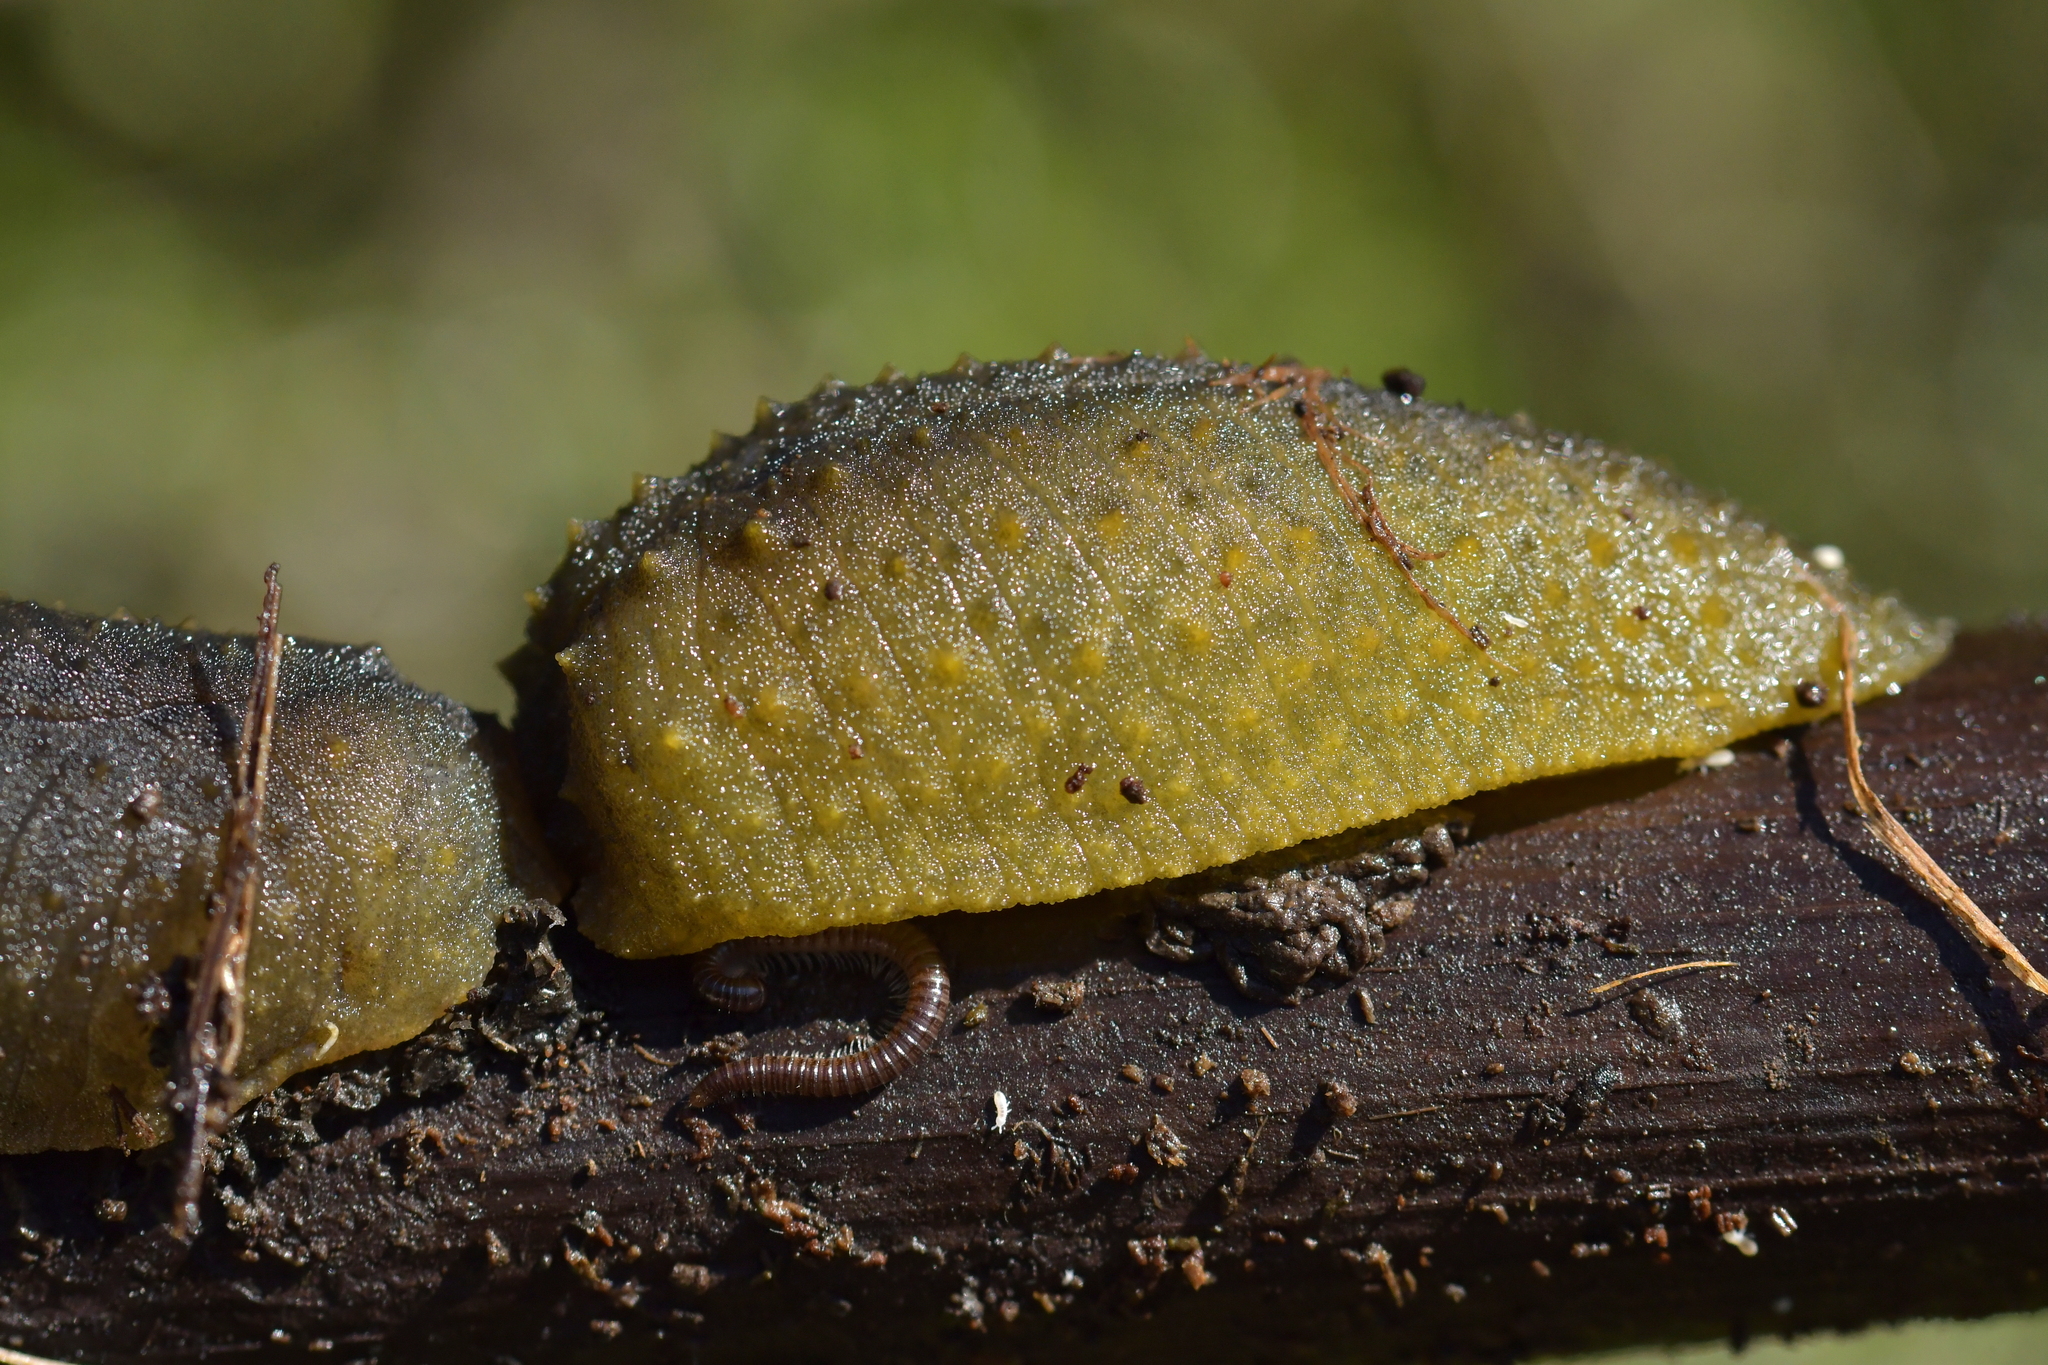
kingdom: Animalia
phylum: Mollusca
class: Gastropoda
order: Stylommatophora
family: Athoracophoridae
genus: Athoracophorus
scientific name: Athoracophorus papillatus
